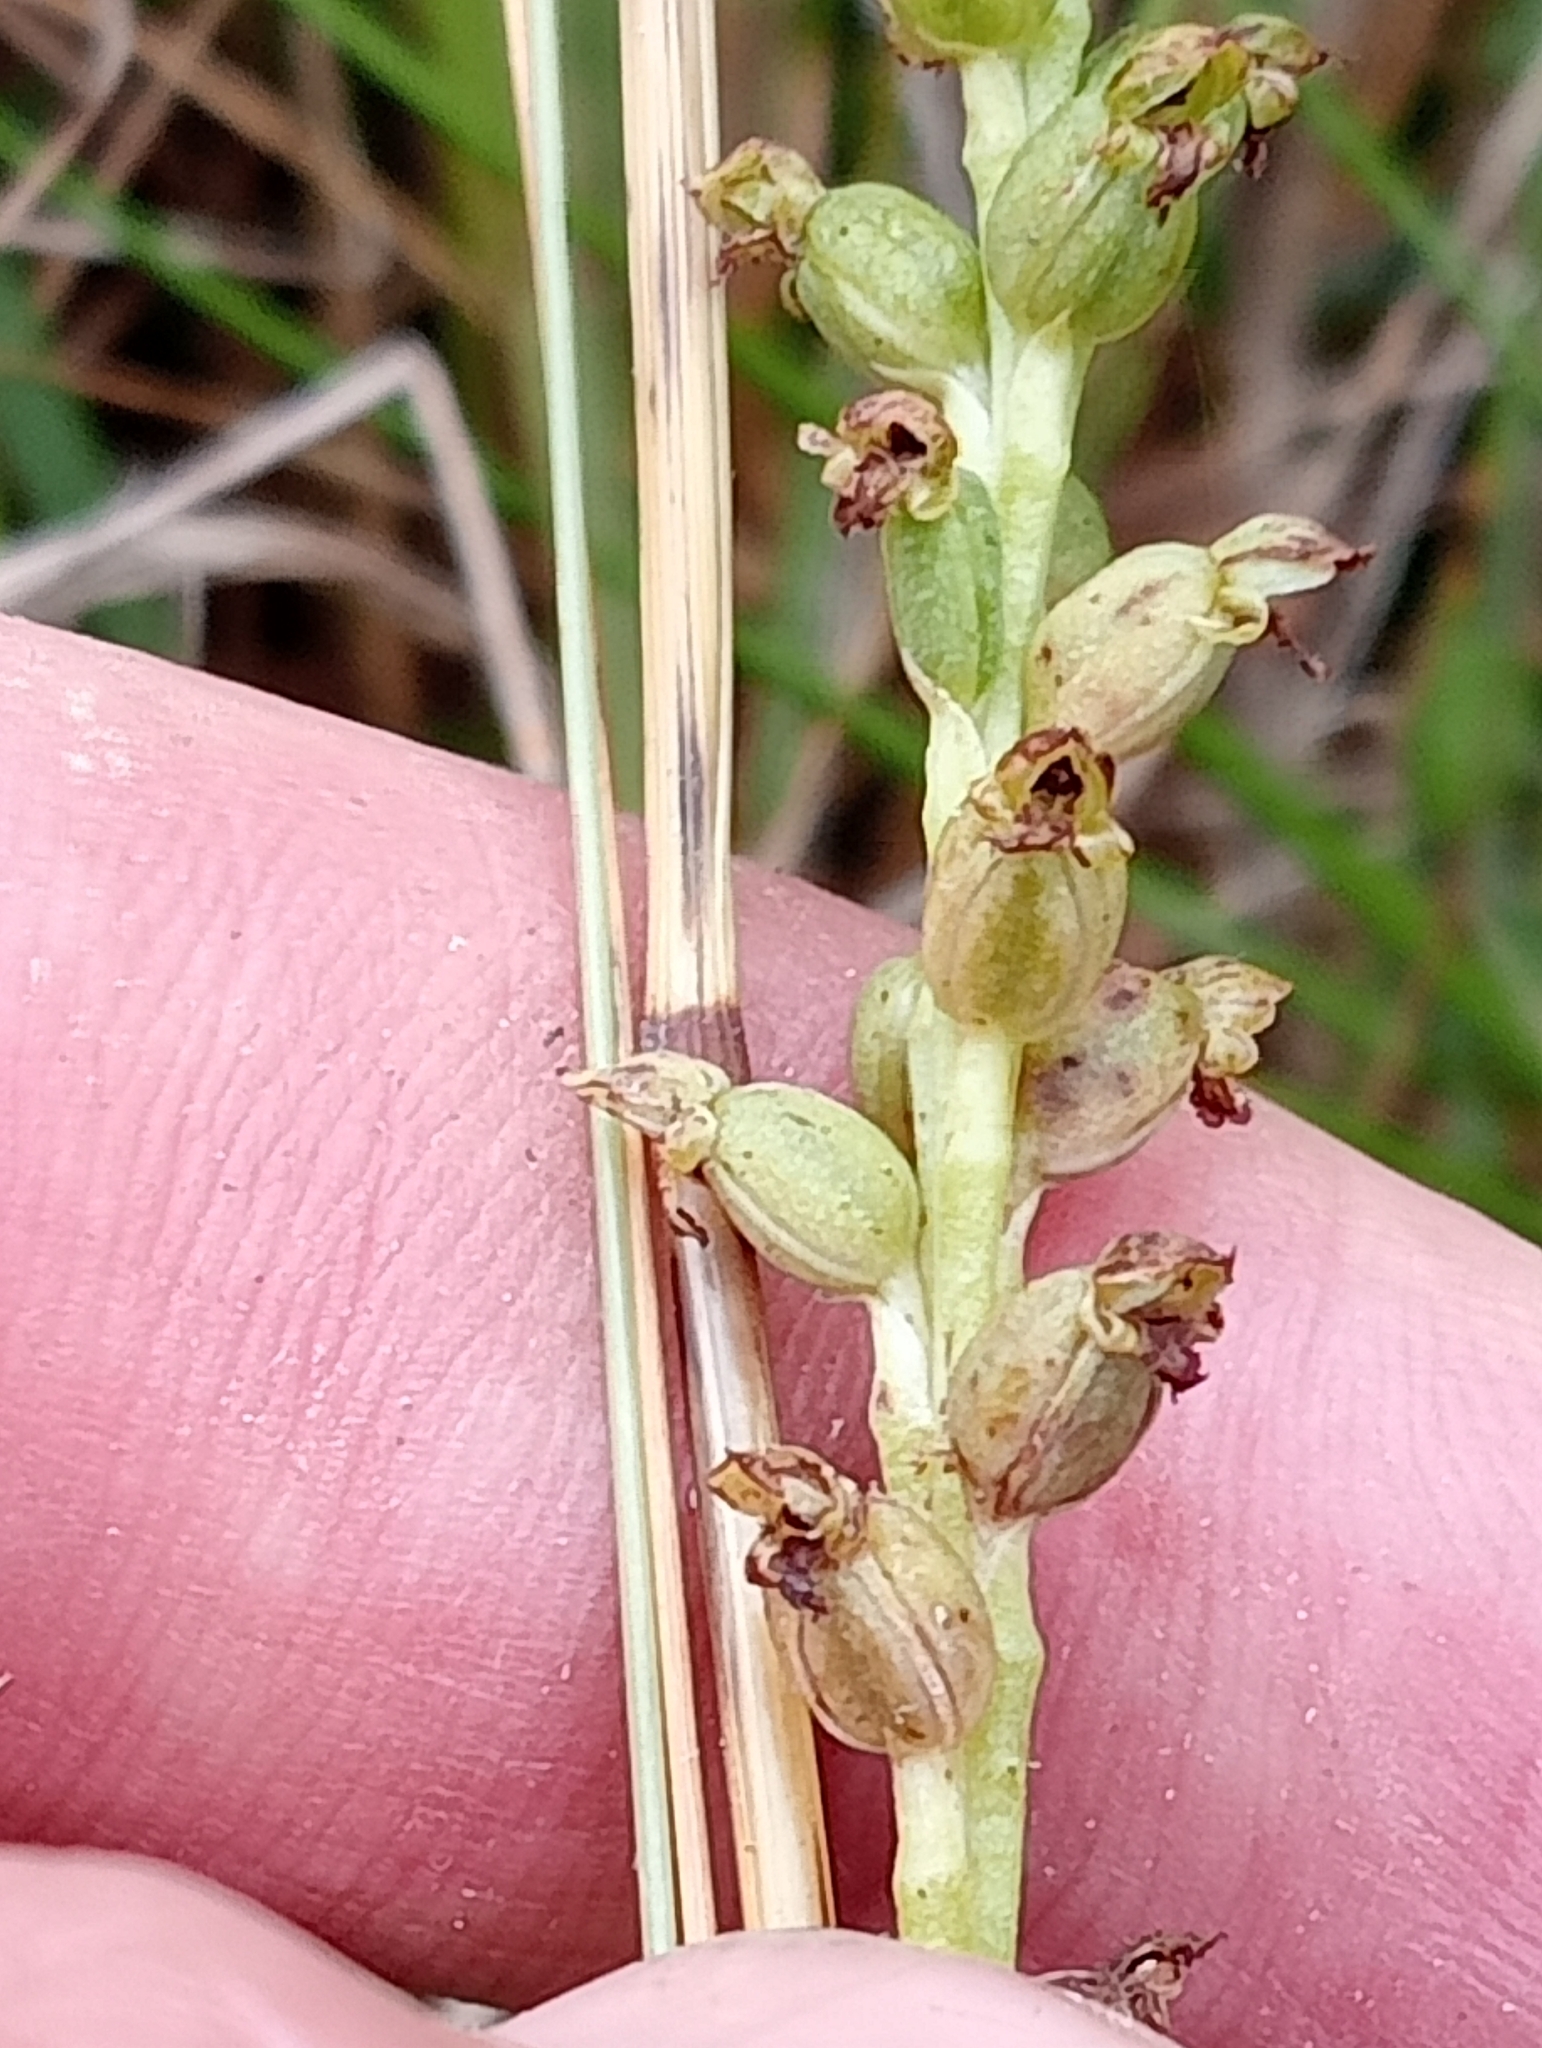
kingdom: Plantae
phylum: Tracheophyta
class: Liliopsida
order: Asparagales
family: Orchidaceae
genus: Microtis
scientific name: Microtis unifolia
